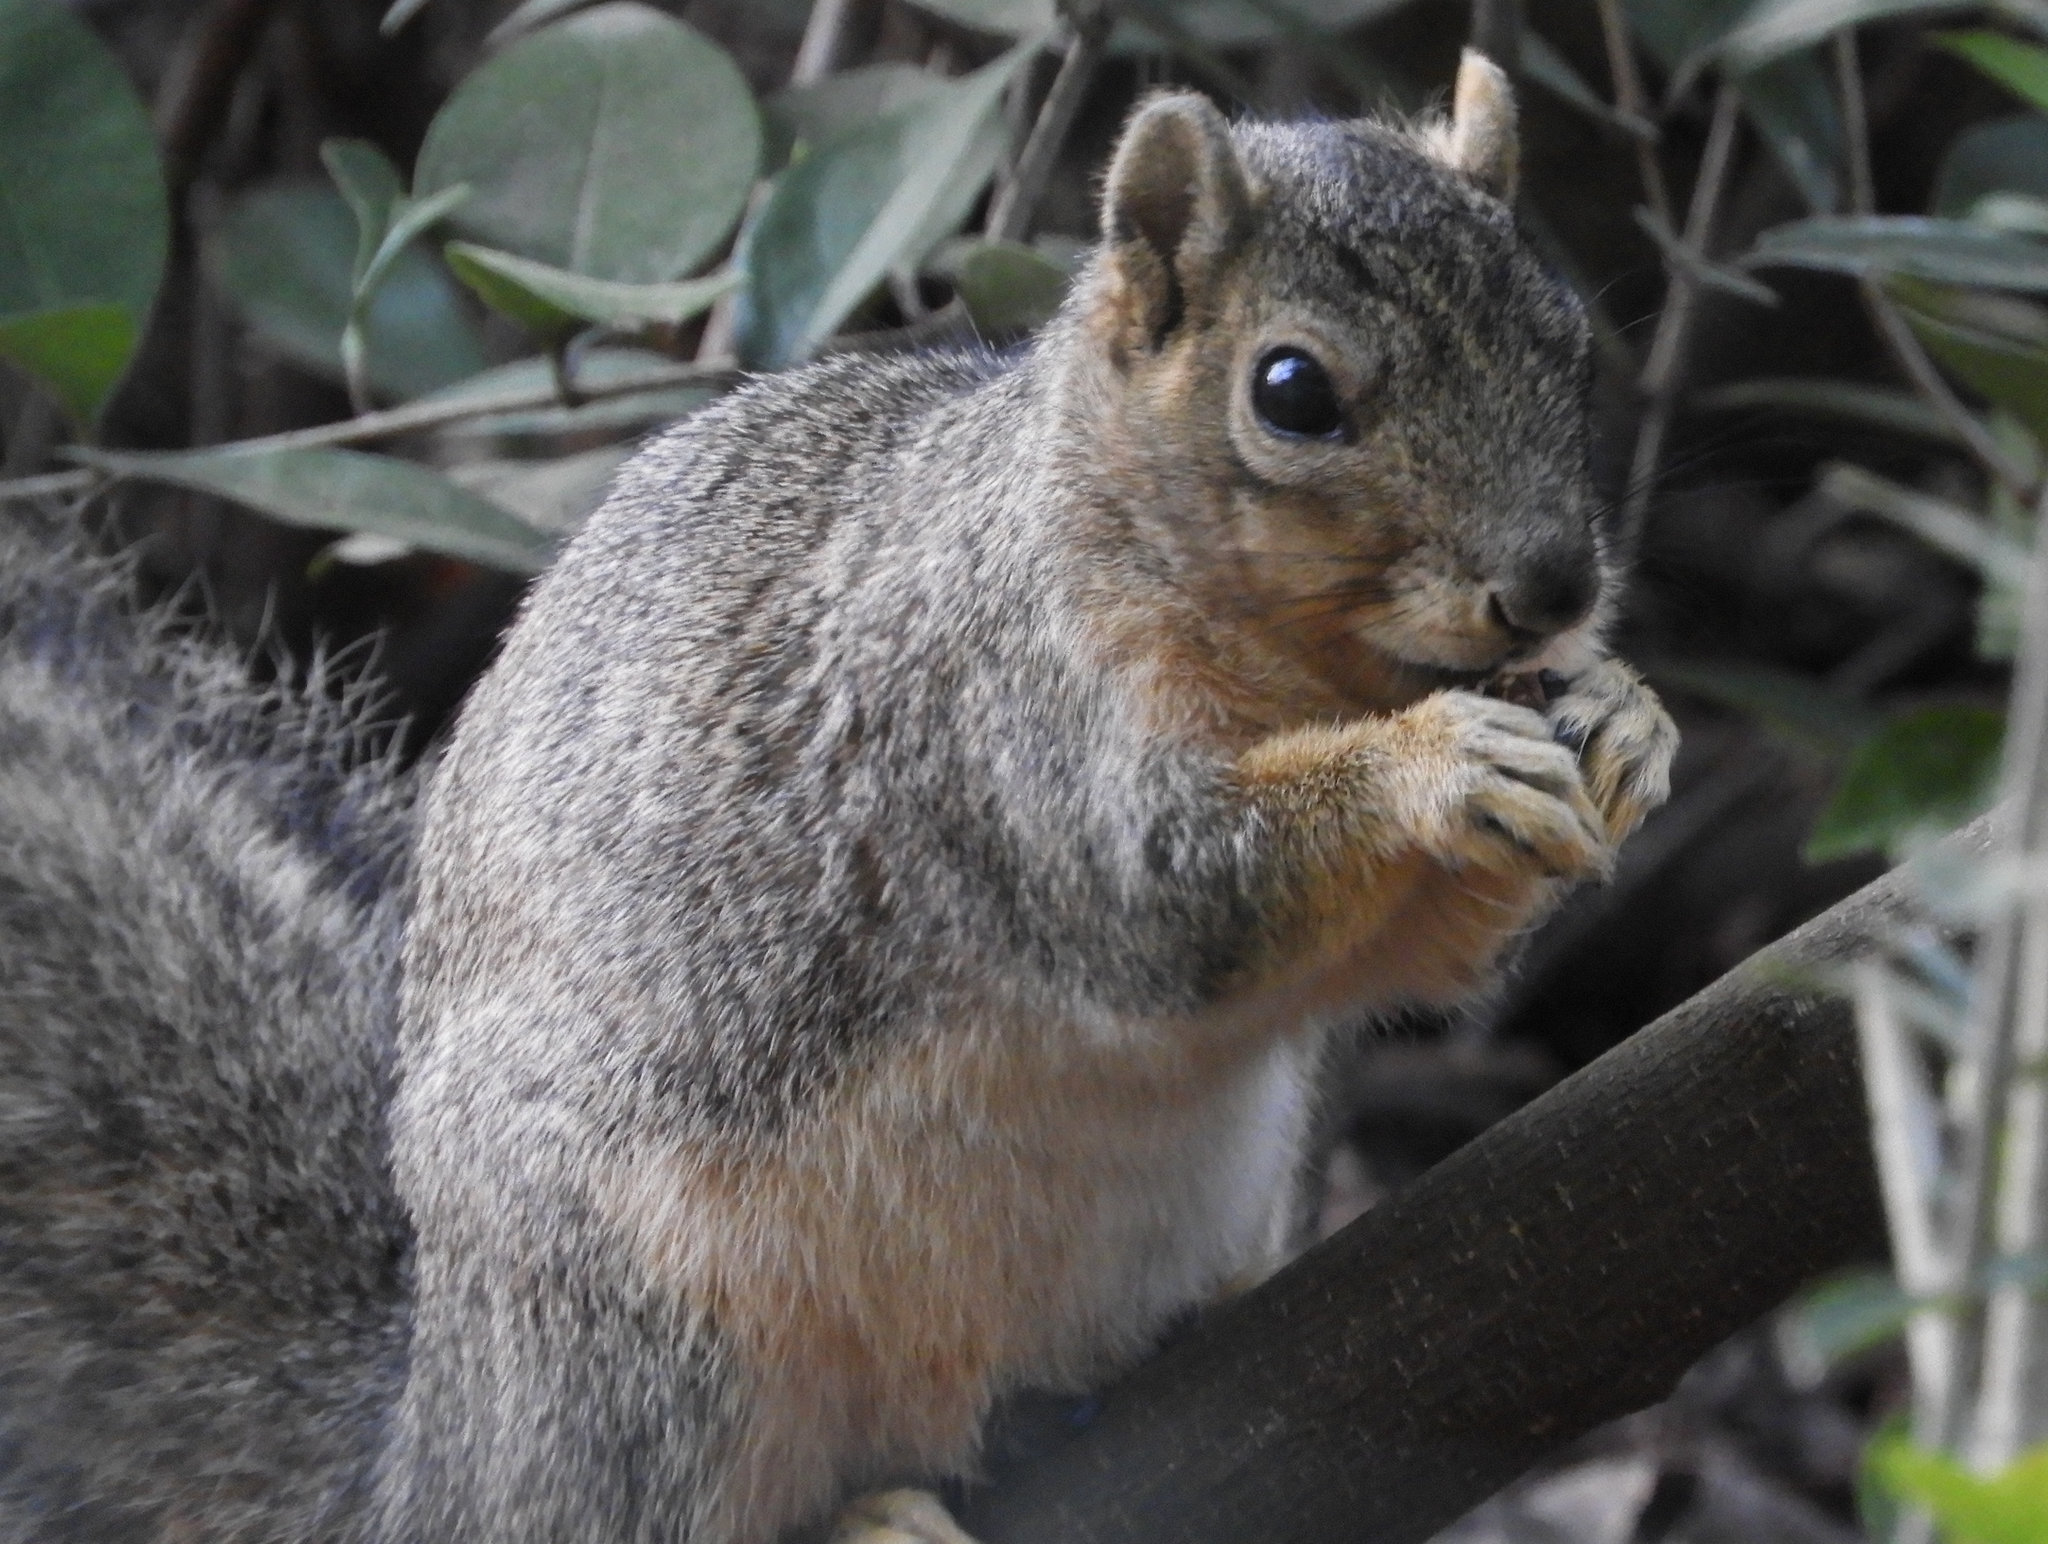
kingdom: Animalia
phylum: Chordata
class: Mammalia
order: Rodentia
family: Sciuridae
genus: Sciurus
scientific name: Sciurus carolinensis
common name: Eastern gray squirrel
